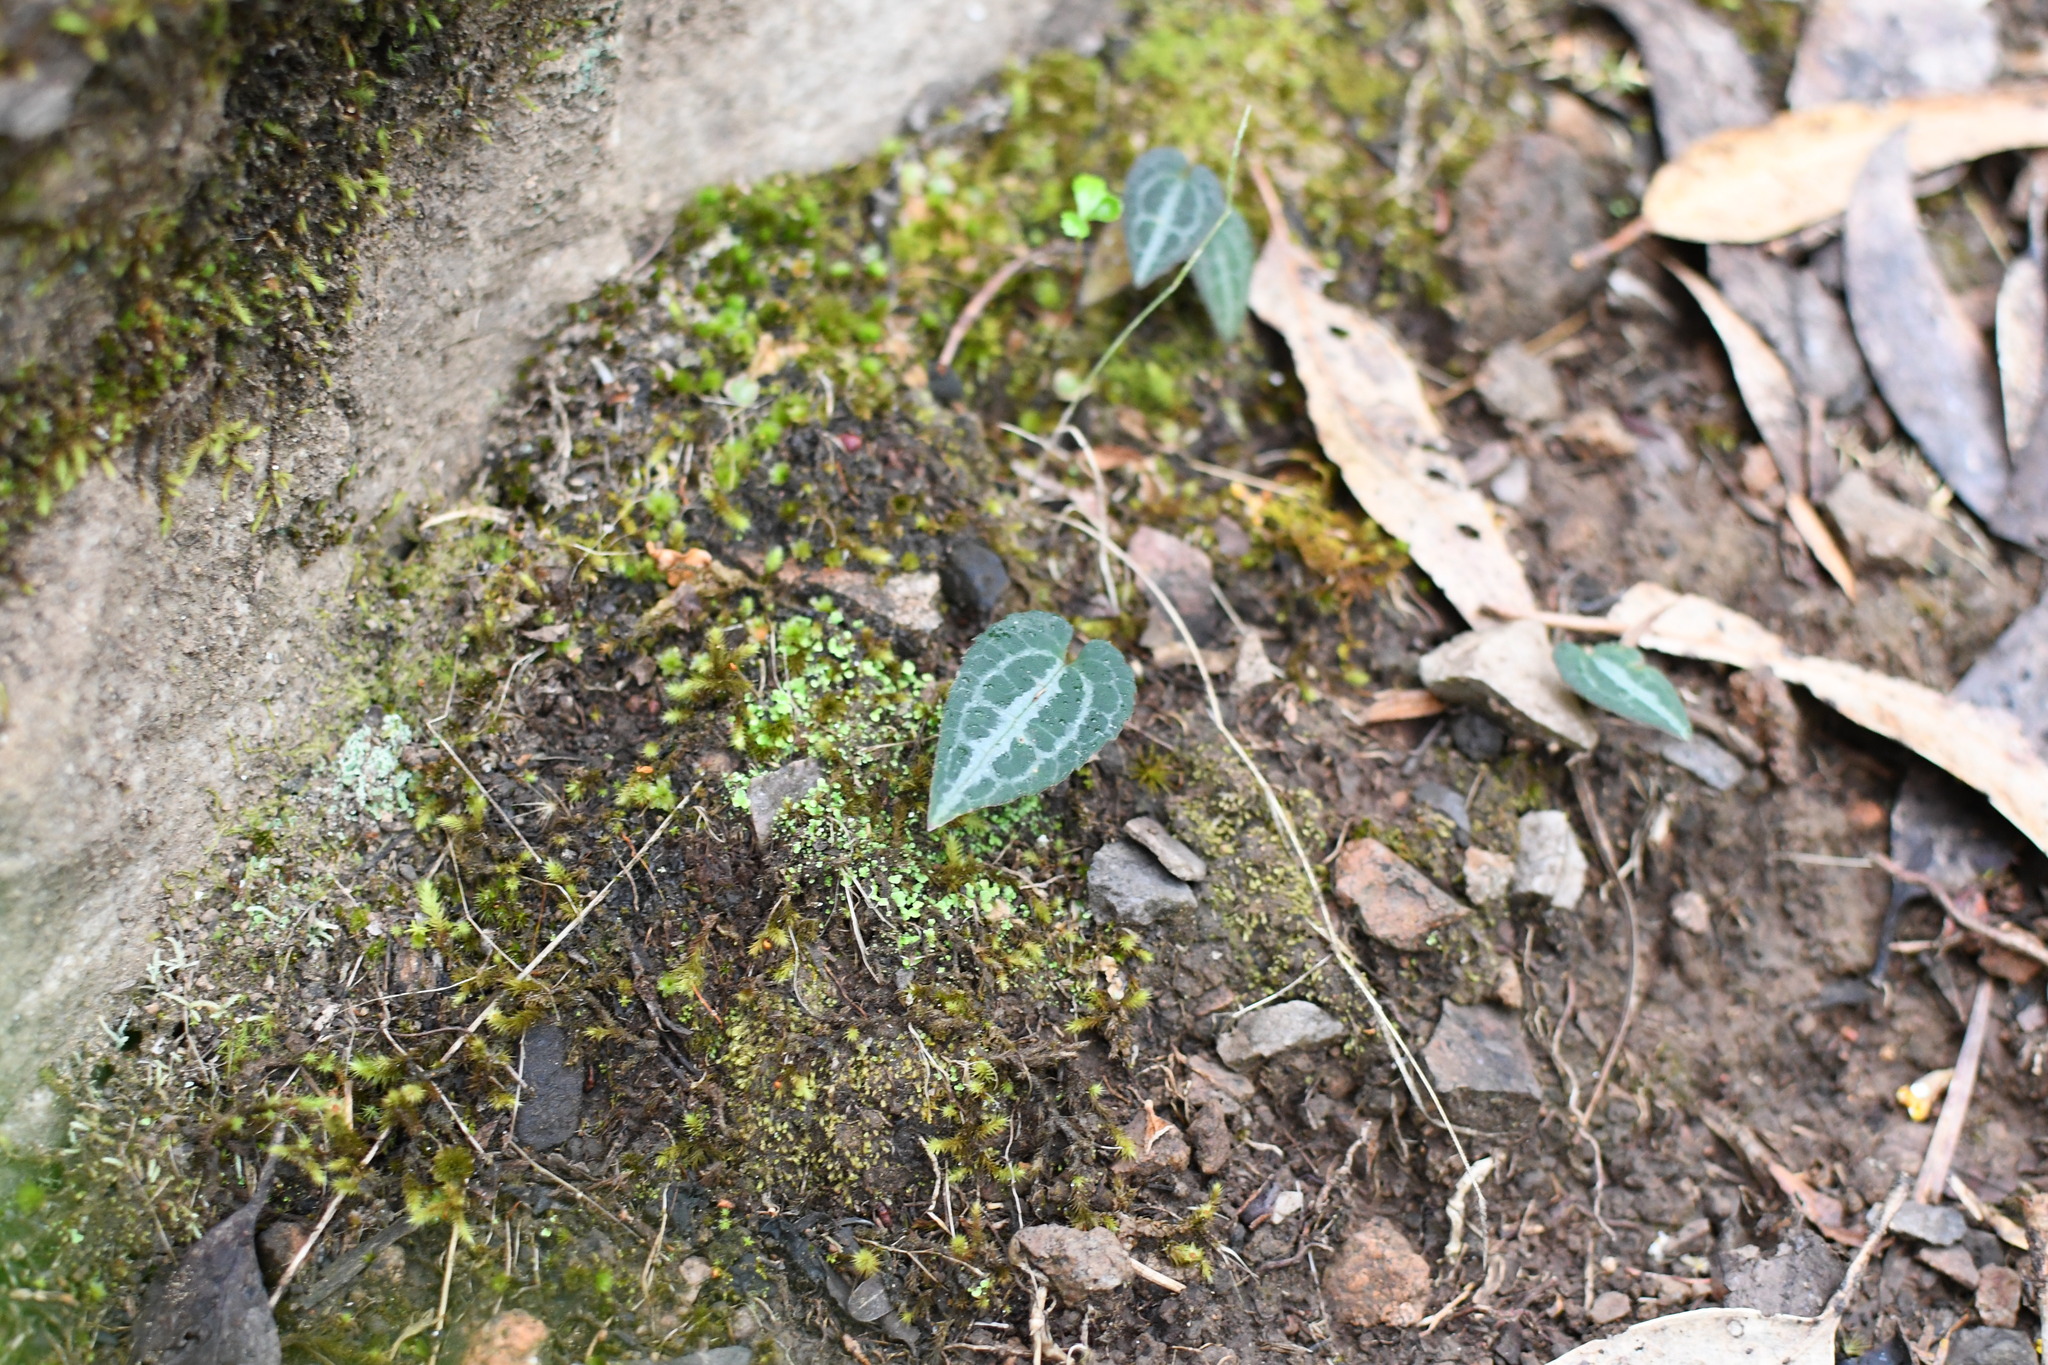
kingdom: Plantae
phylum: Tracheophyta
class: Magnoliopsida
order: Ranunculales
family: Ranunculaceae
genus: Clematis
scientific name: Clematis aristata
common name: Mountain clematis
